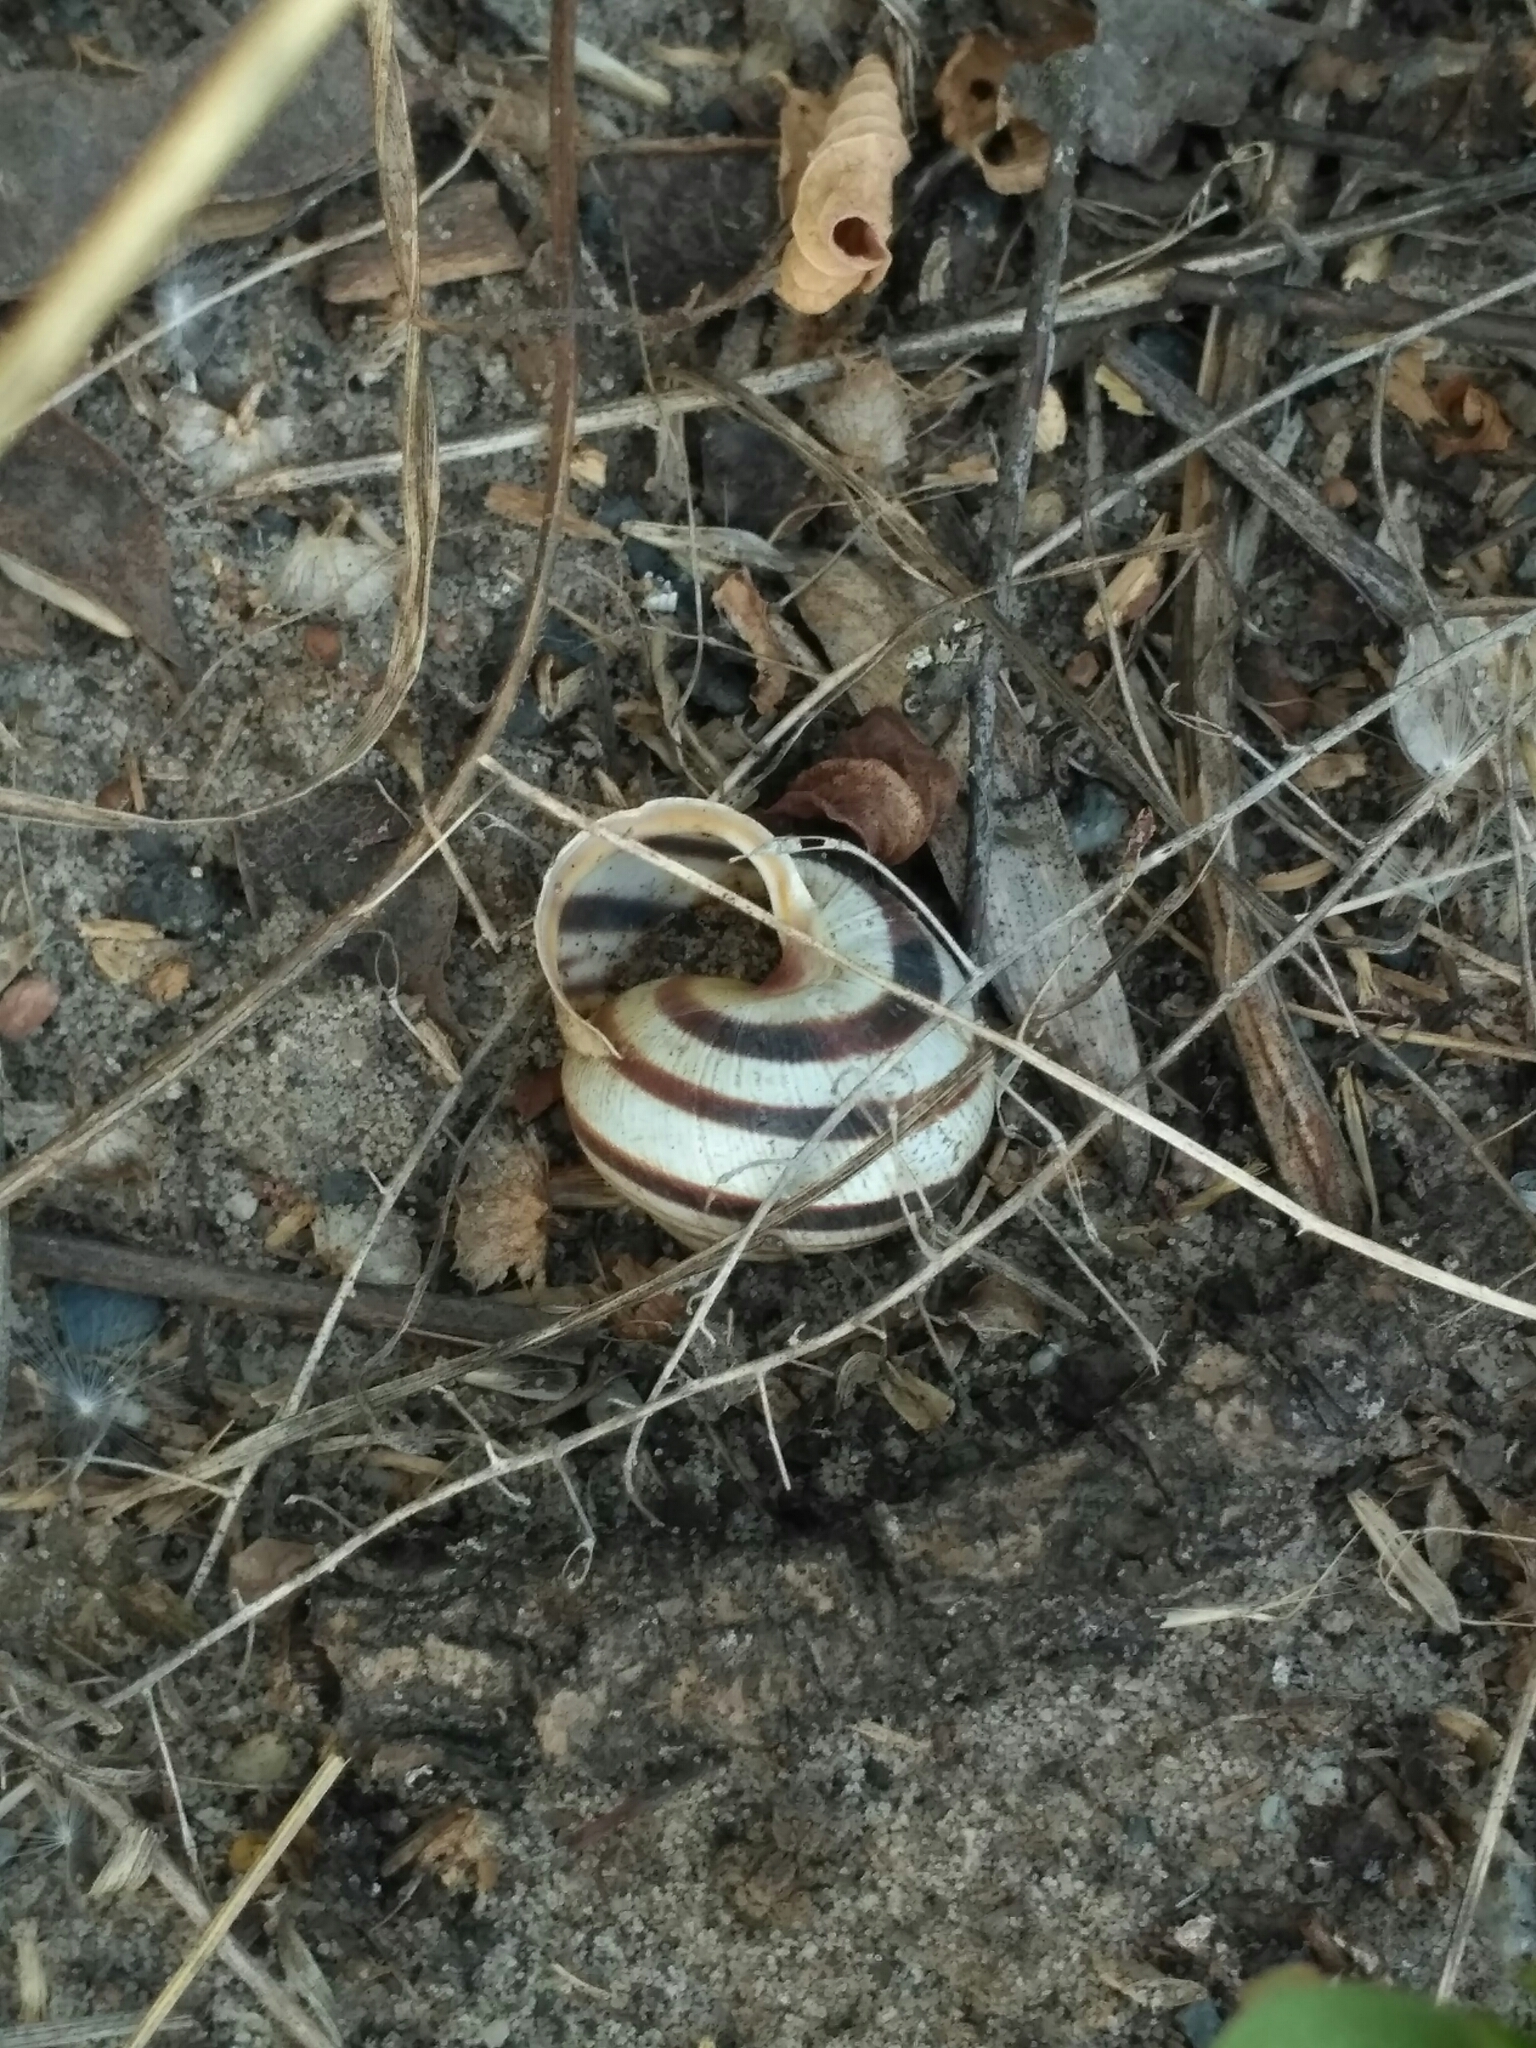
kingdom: Animalia
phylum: Mollusca
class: Gastropoda
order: Stylommatophora
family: Helicidae
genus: Caucasotachea
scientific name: Caucasotachea vindobonensis
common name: European helicid land snail
